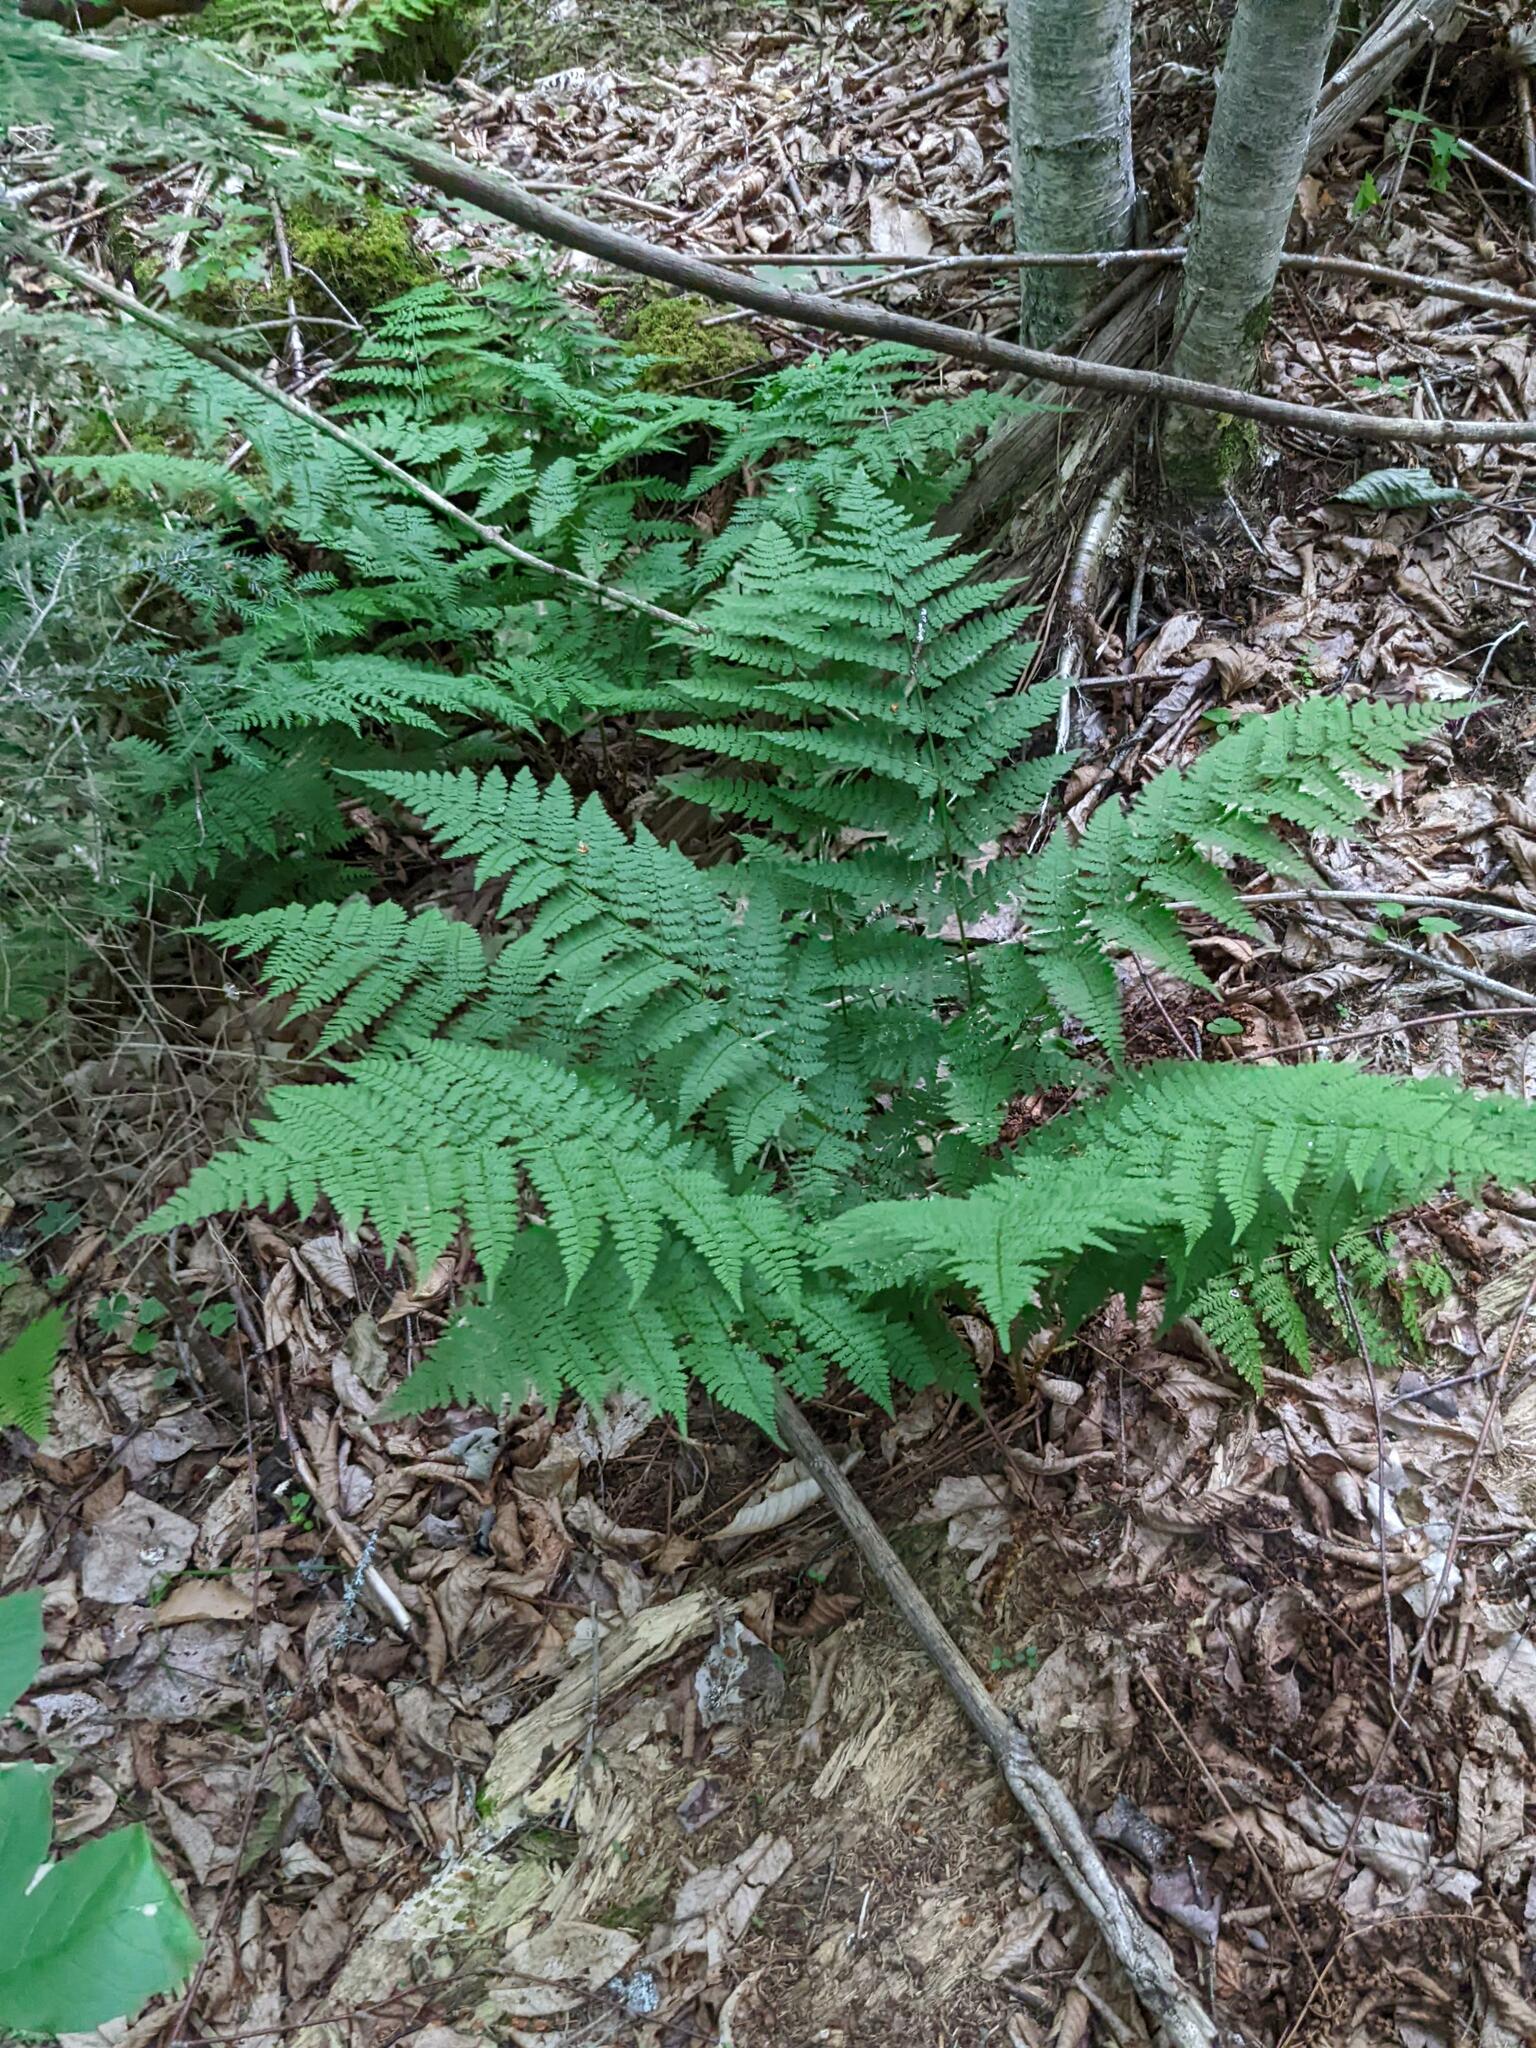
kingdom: Plantae
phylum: Tracheophyta
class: Polypodiopsida
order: Polypodiales
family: Dryopteridaceae
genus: Dryopteris
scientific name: Dryopteris intermedia
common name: Evergreen wood fern
